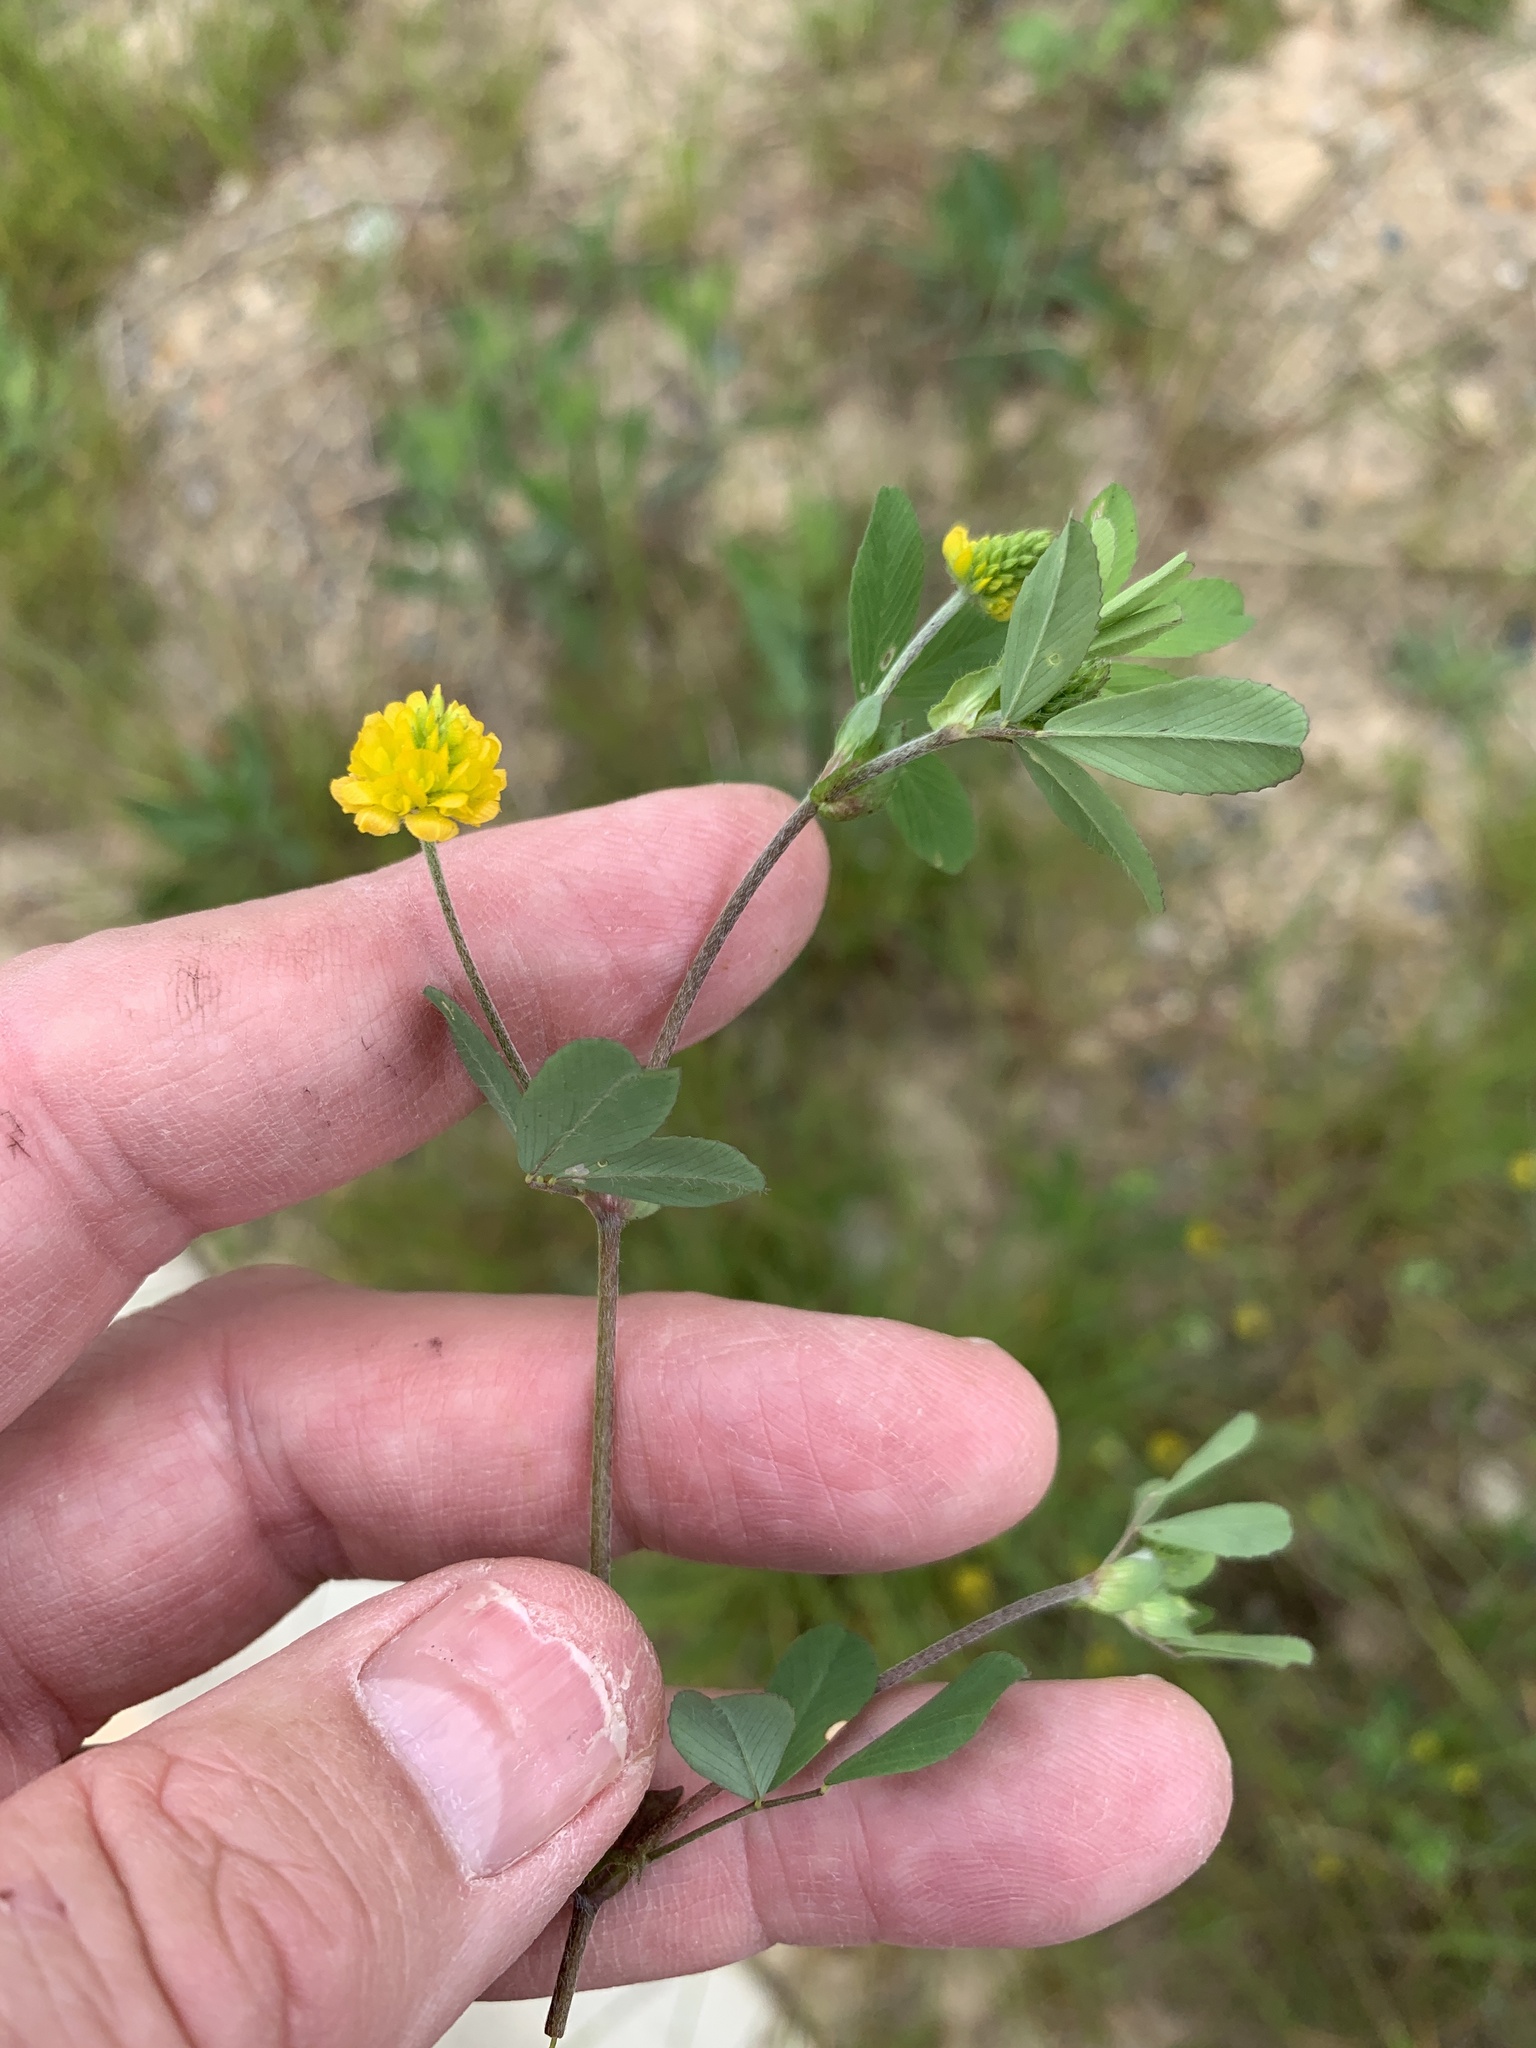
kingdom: Plantae
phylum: Tracheophyta
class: Magnoliopsida
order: Fabales
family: Fabaceae
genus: Trifolium
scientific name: Trifolium campestre
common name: Field clover
